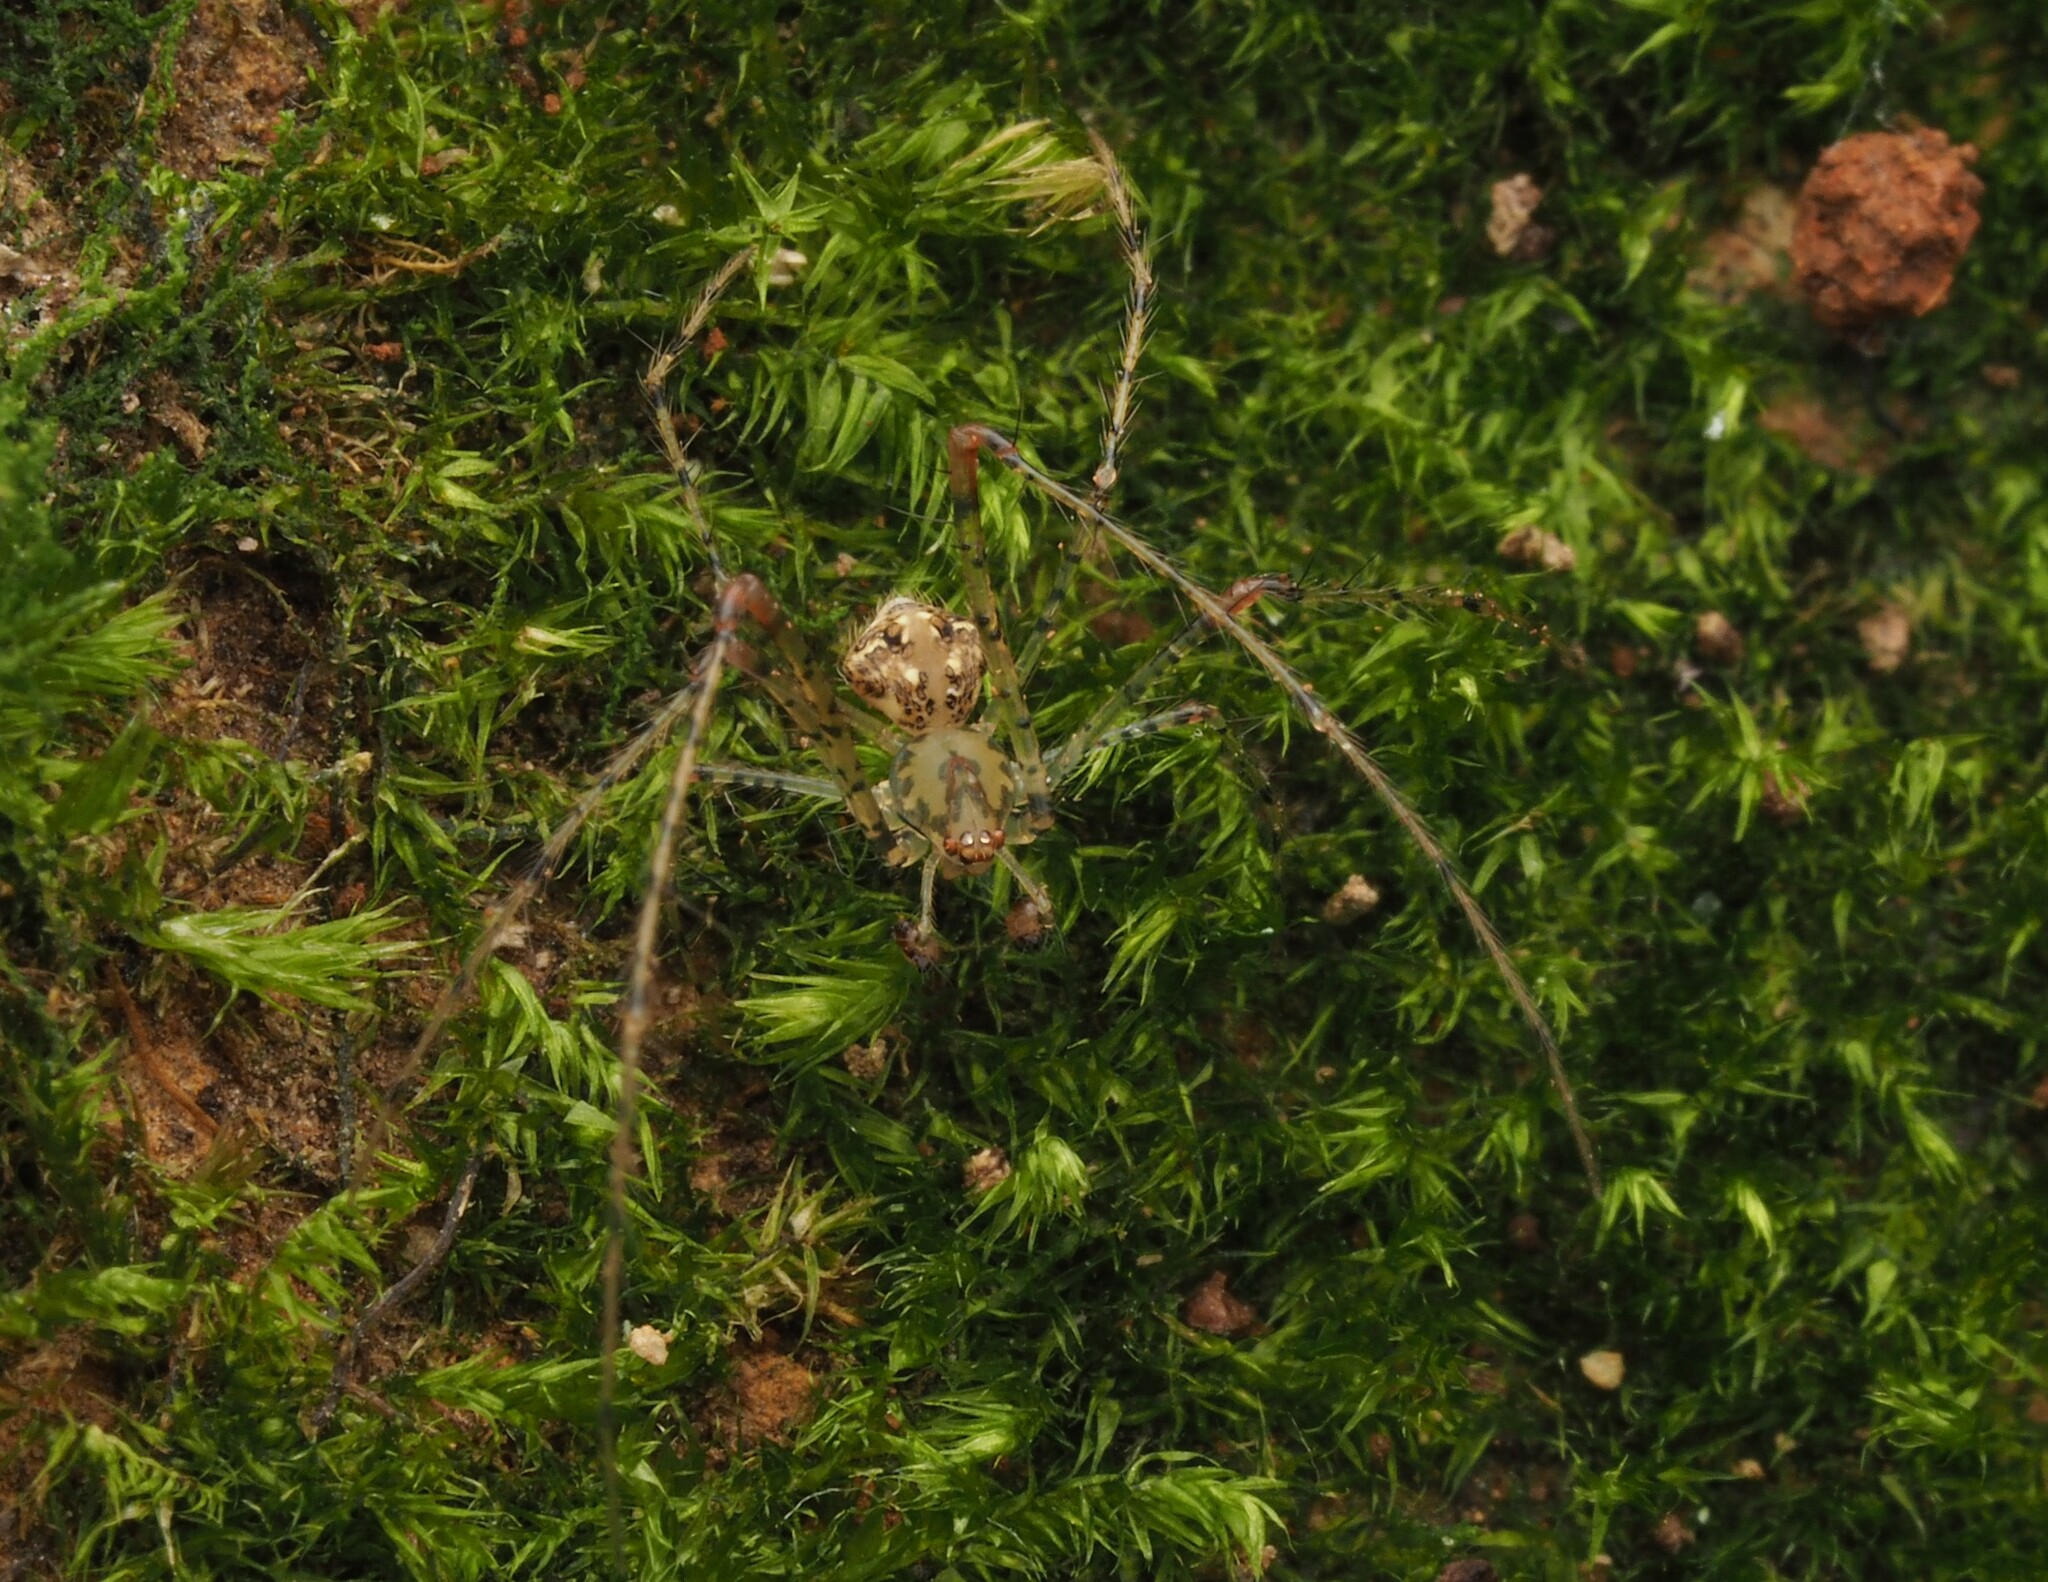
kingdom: Animalia
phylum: Arthropoda
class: Arachnida
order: Araneae
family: Mimetidae
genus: Australomimetus
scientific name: Australomimetus triangulosus
